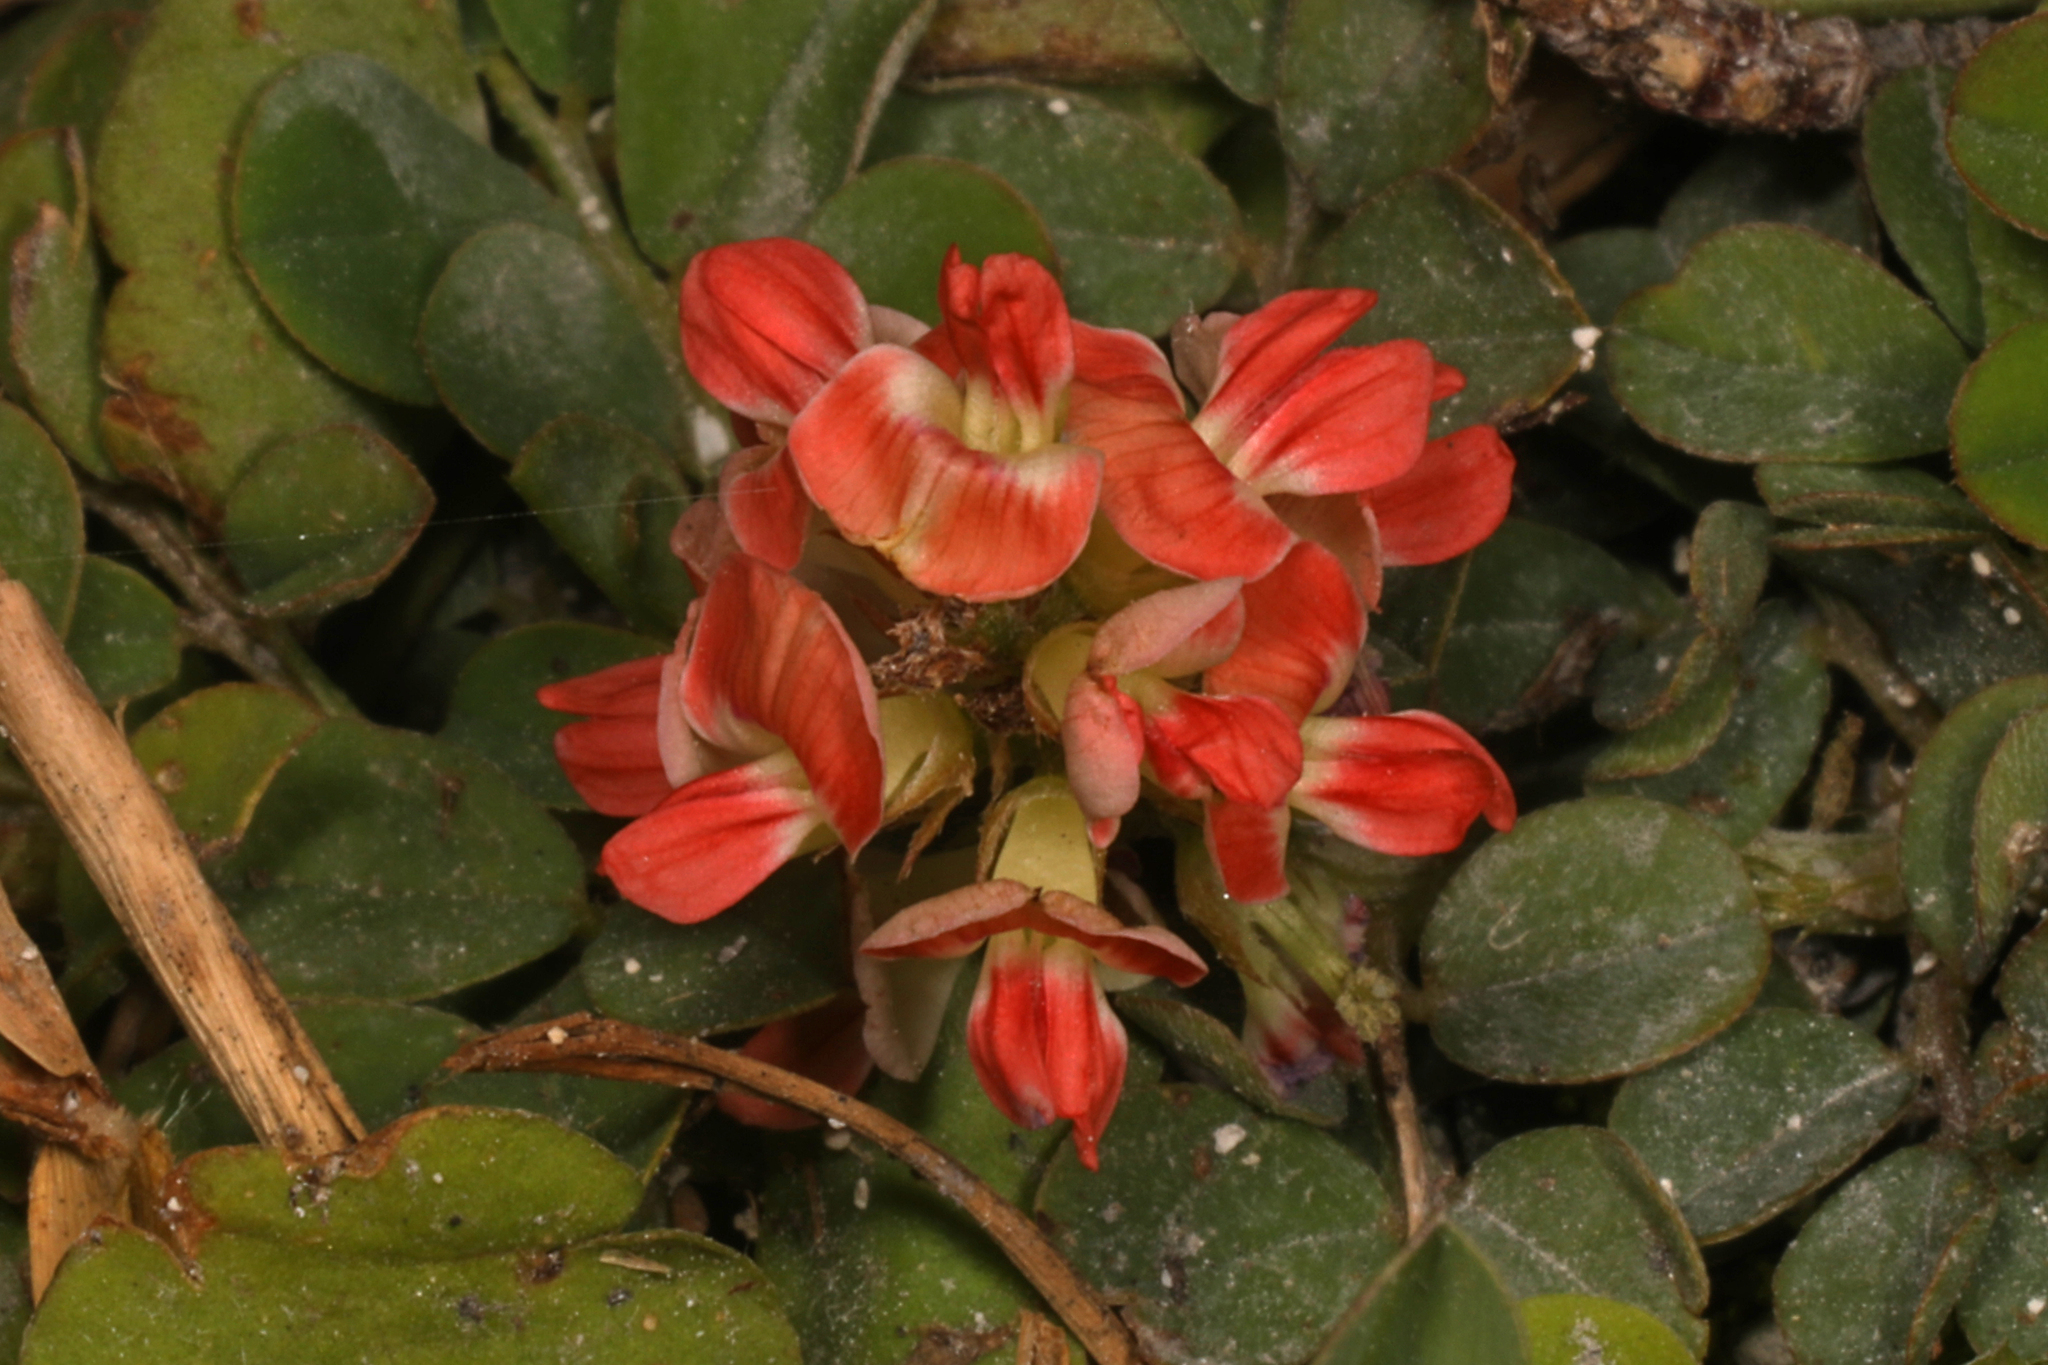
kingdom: Plantae
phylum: Tracheophyta
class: Magnoliopsida
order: Fabales
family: Fabaceae
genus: Indigofera
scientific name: Indigofera spicata
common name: Creeping indigo
